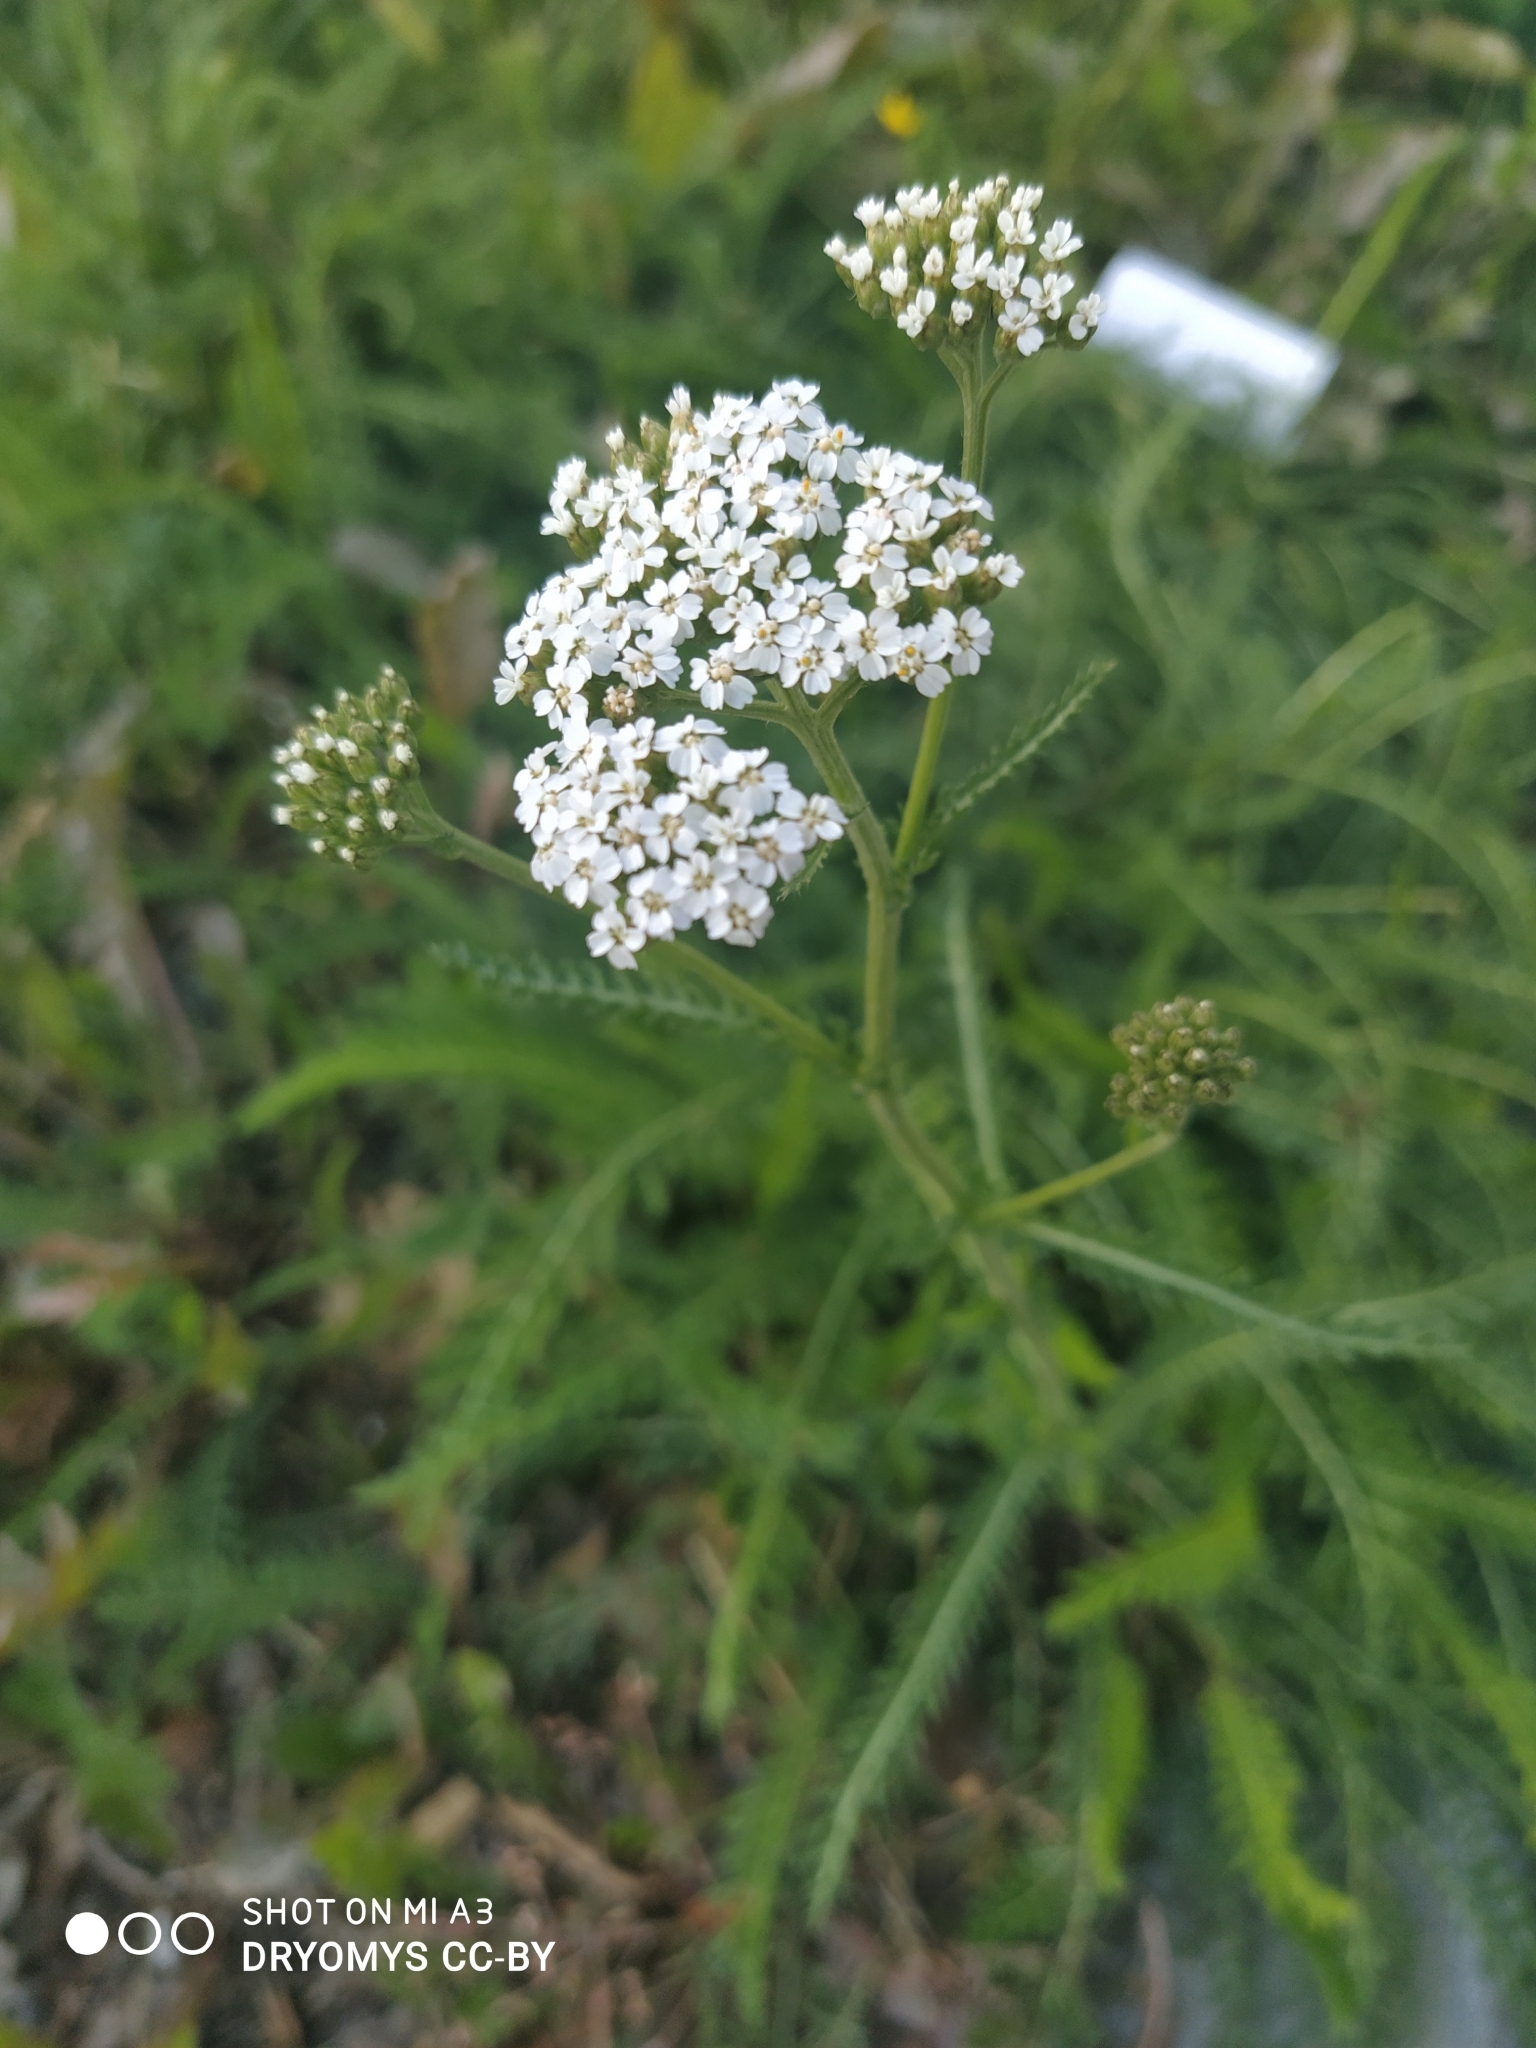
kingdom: Plantae
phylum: Tracheophyta
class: Magnoliopsida
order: Asterales
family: Asteraceae
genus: Achillea
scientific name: Achillea millefolium
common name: Yarrow
